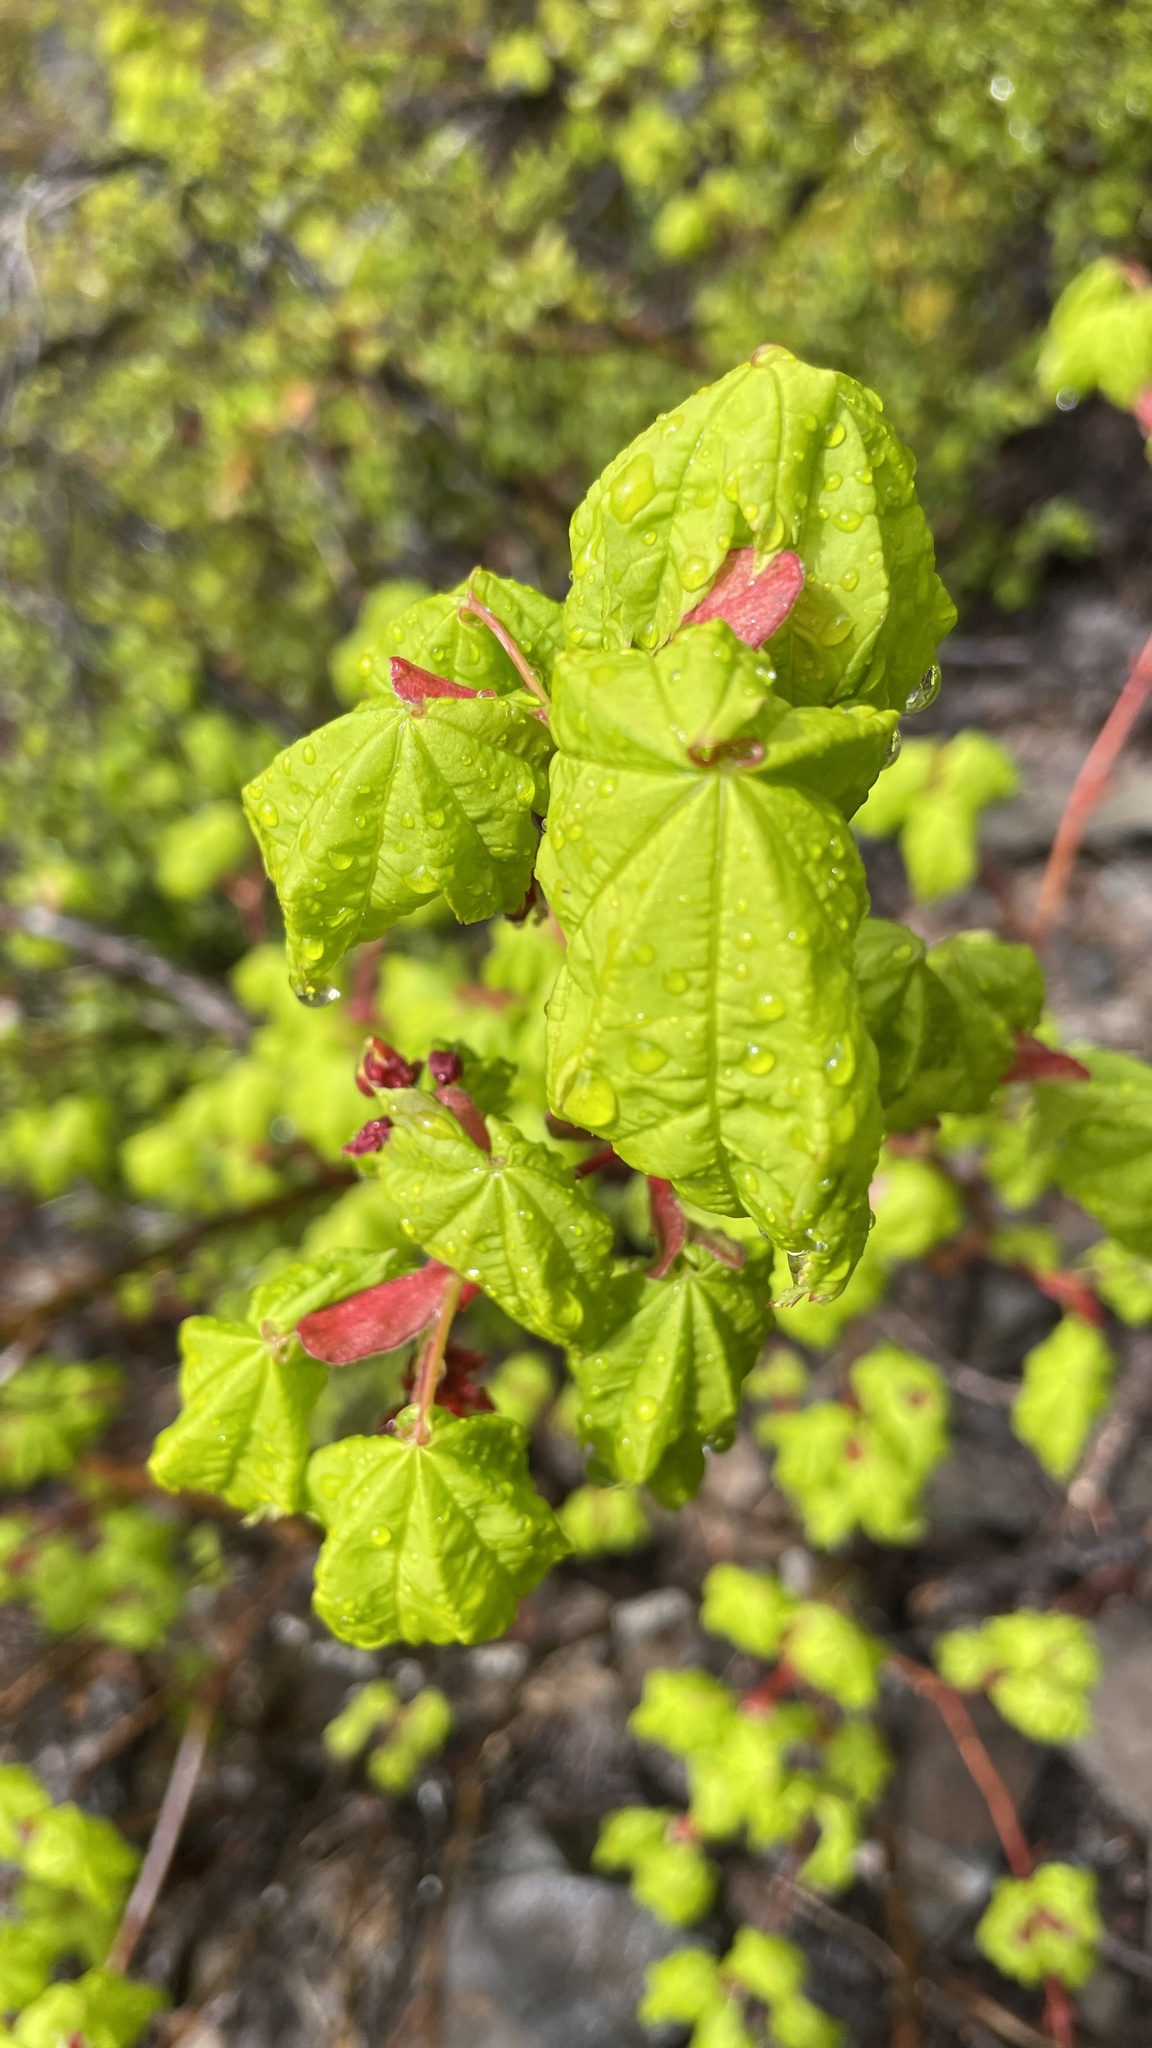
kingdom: Plantae
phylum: Tracheophyta
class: Magnoliopsida
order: Sapindales
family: Sapindaceae
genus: Acer
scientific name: Acer circinatum
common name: Vine maple
